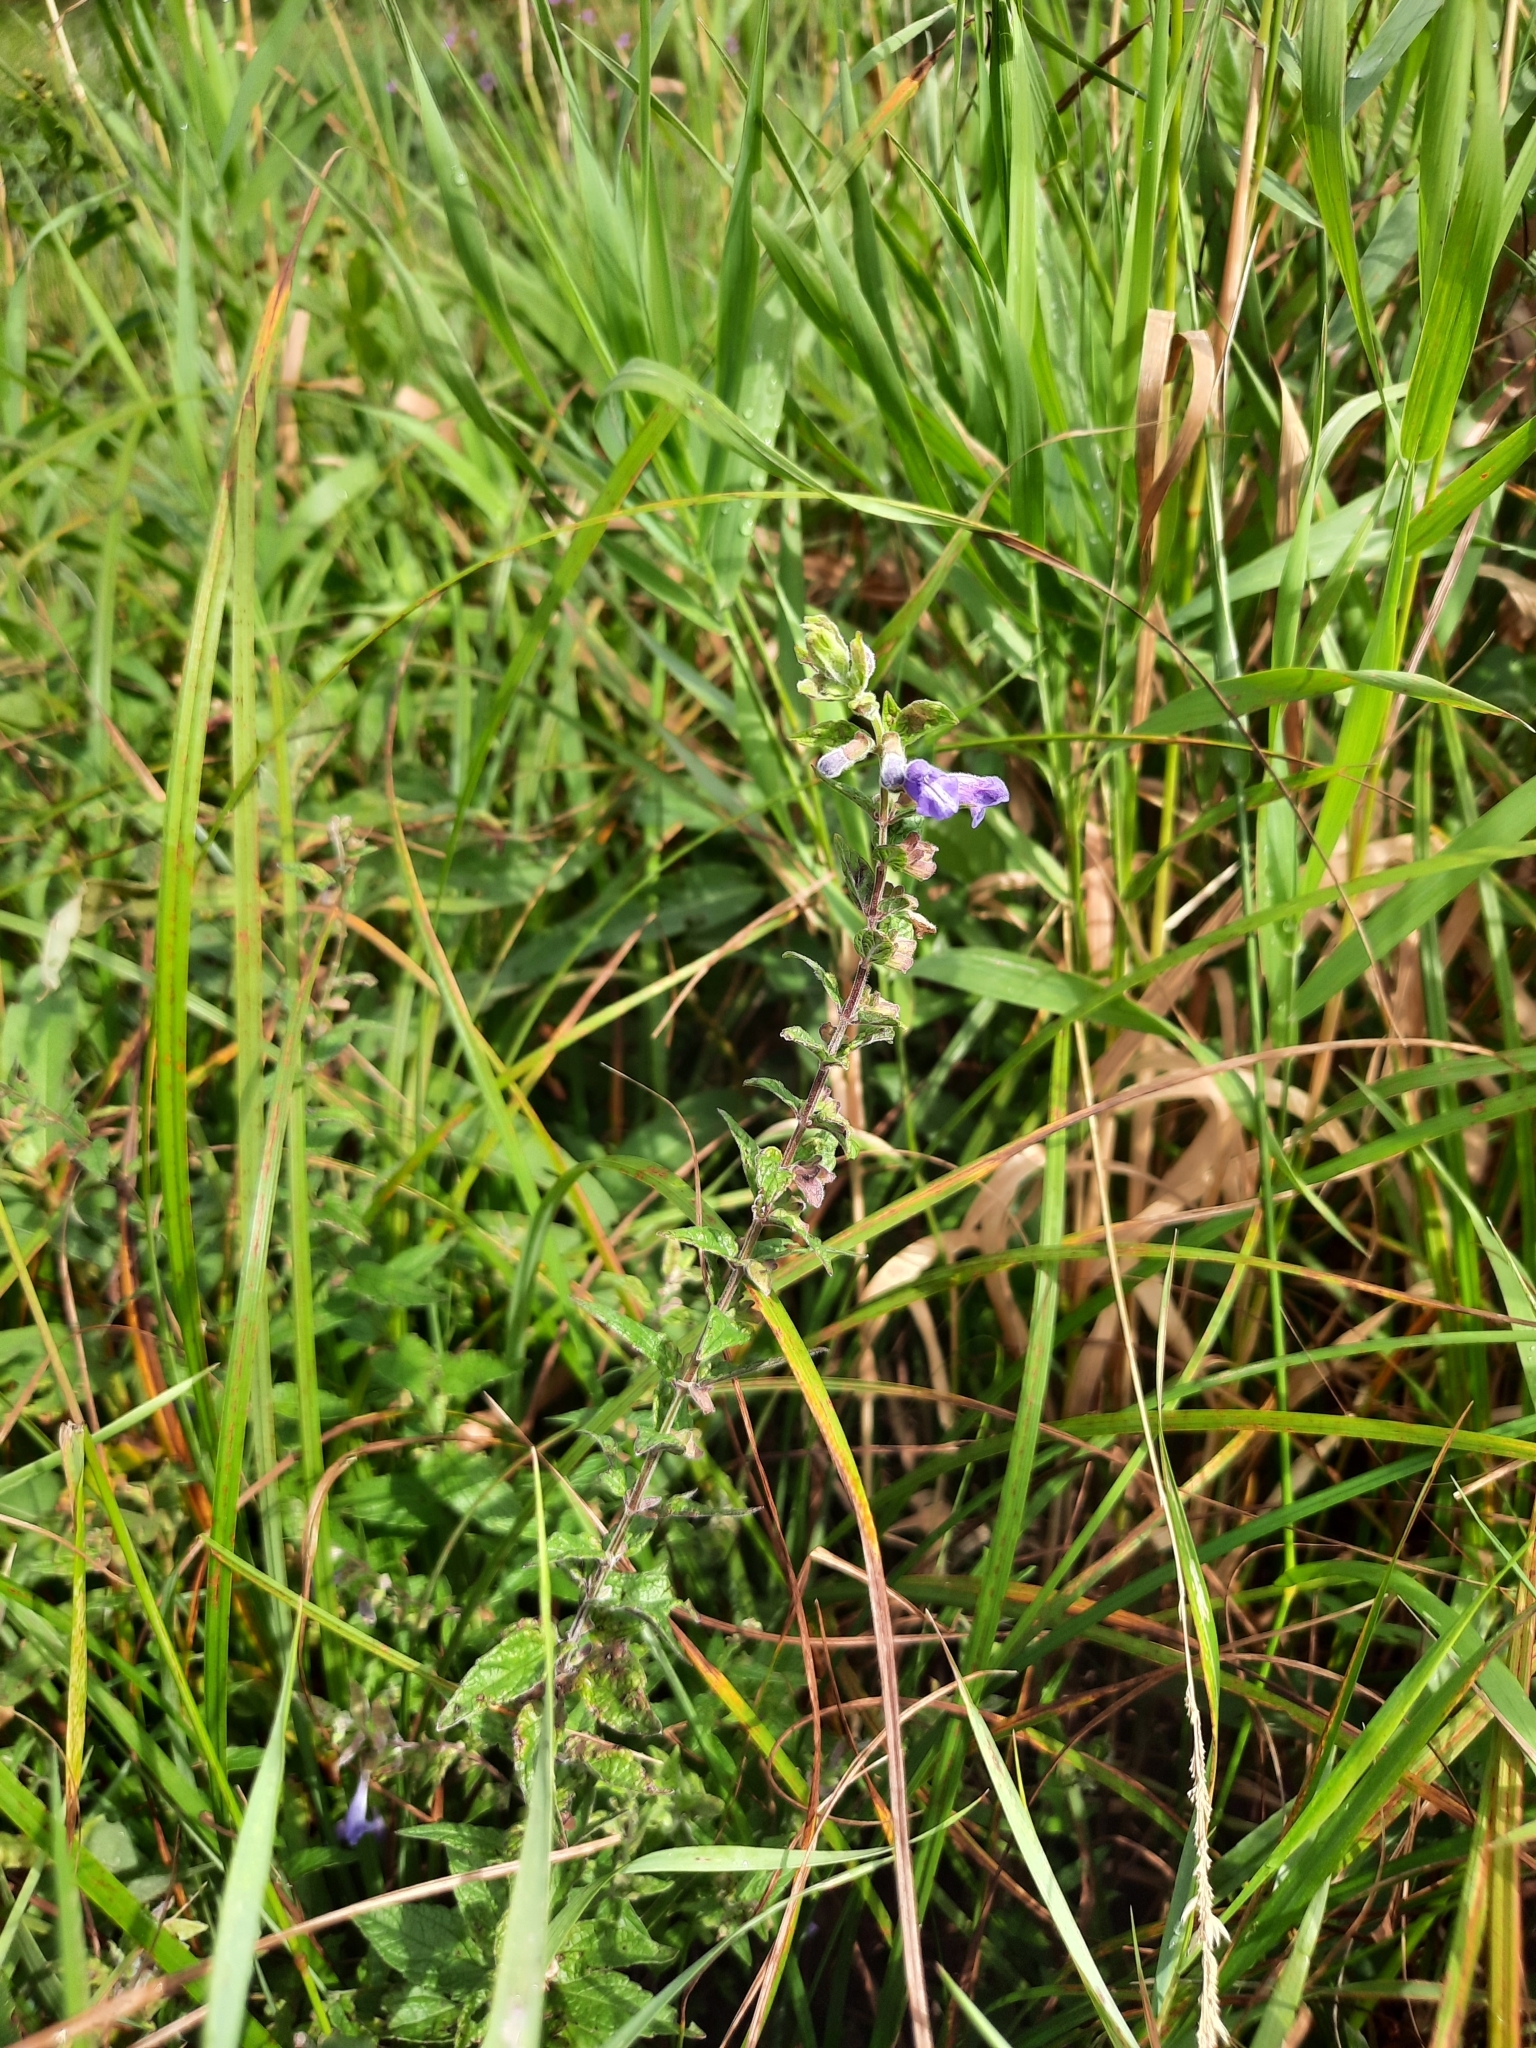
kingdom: Plantae
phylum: Tracheophyta
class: Magnoliopsida
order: Lamiales
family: Lamiaceae
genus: Scutellaria
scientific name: Scutellaria galericulata
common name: Skullcap
